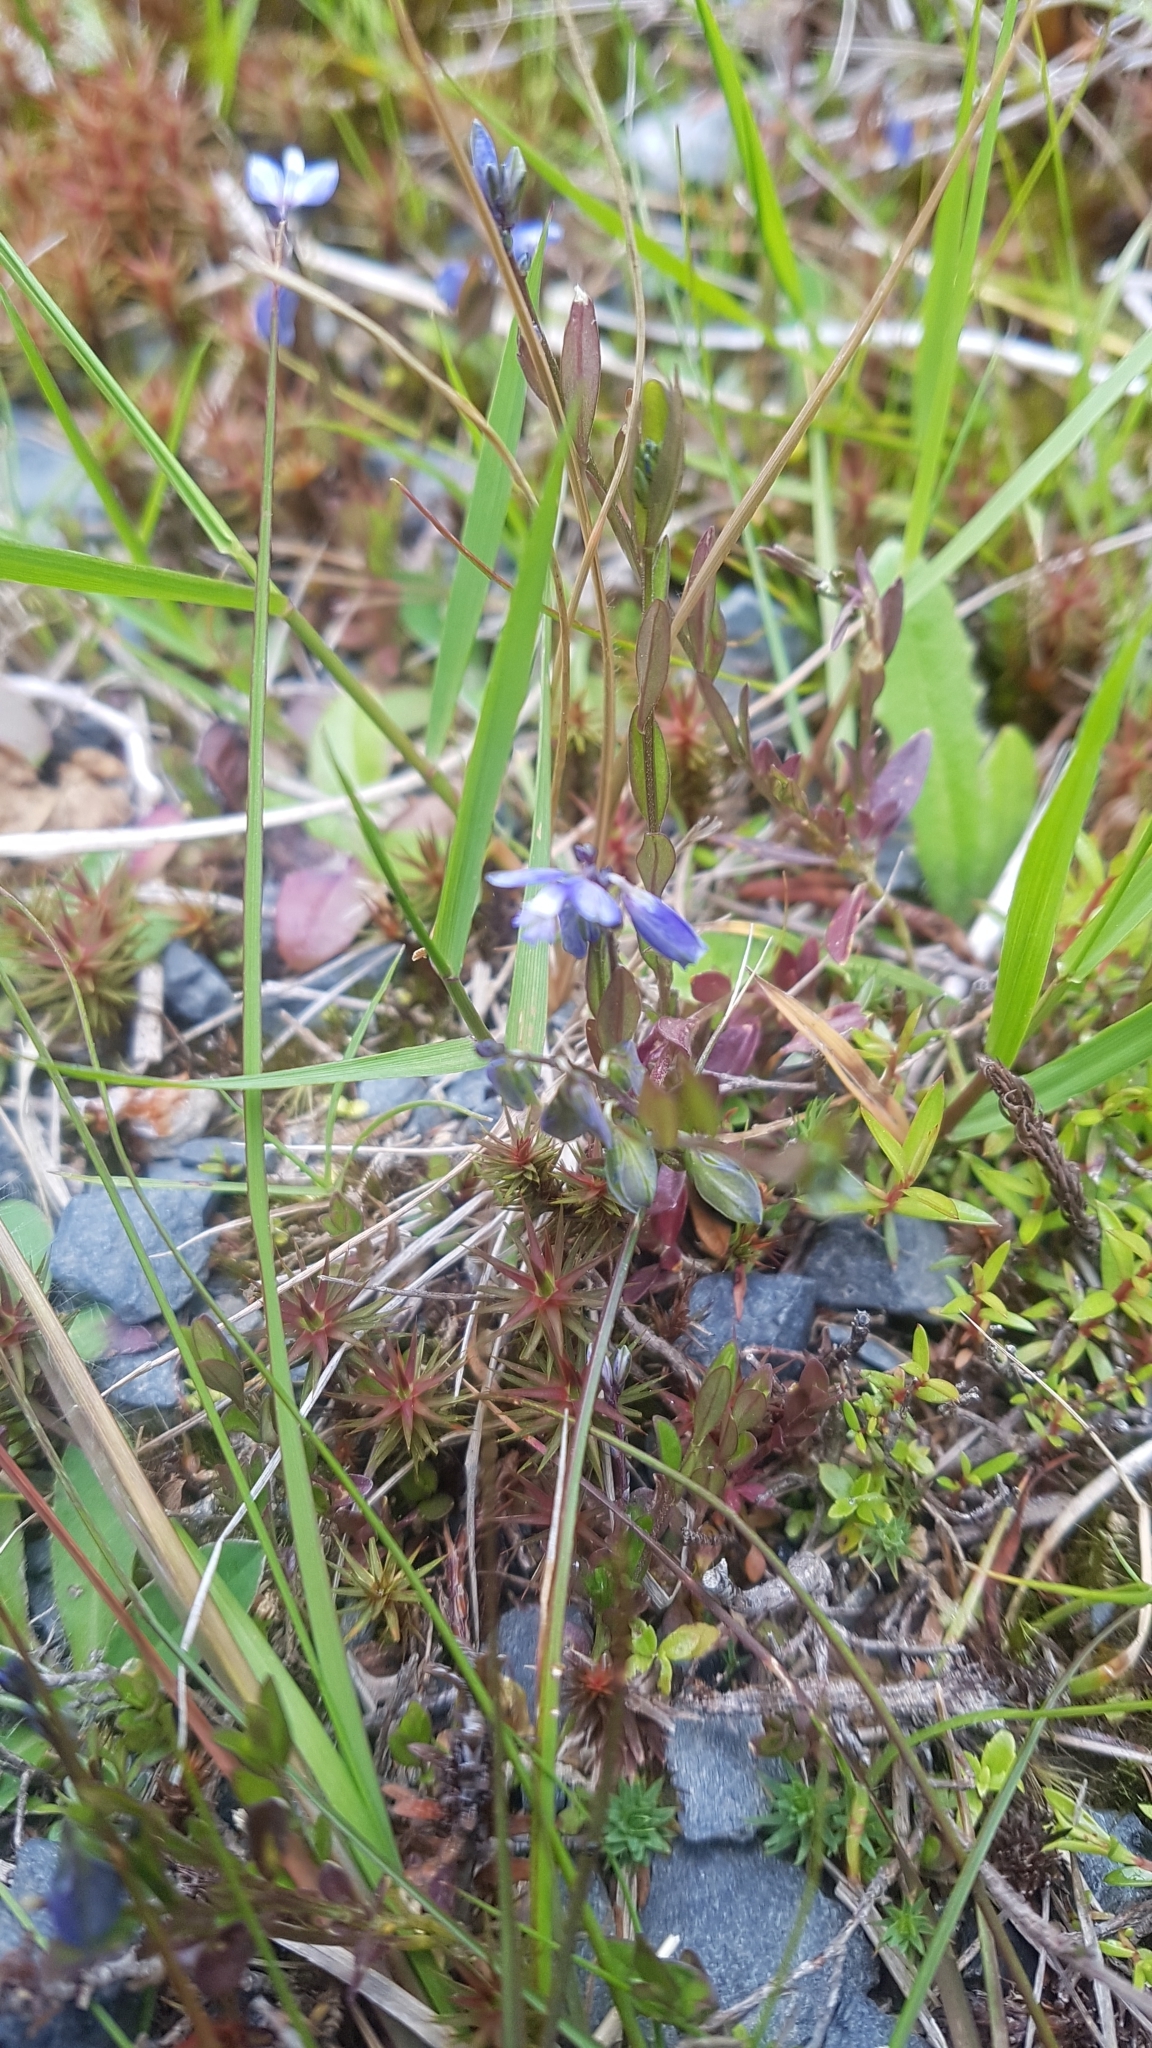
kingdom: Plantae
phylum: Tracheophyta
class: Magnoliopsida
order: Fabales
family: Polygalaceae
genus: Polygala
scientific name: Polygala serpyllifolia
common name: Heath milkwort
